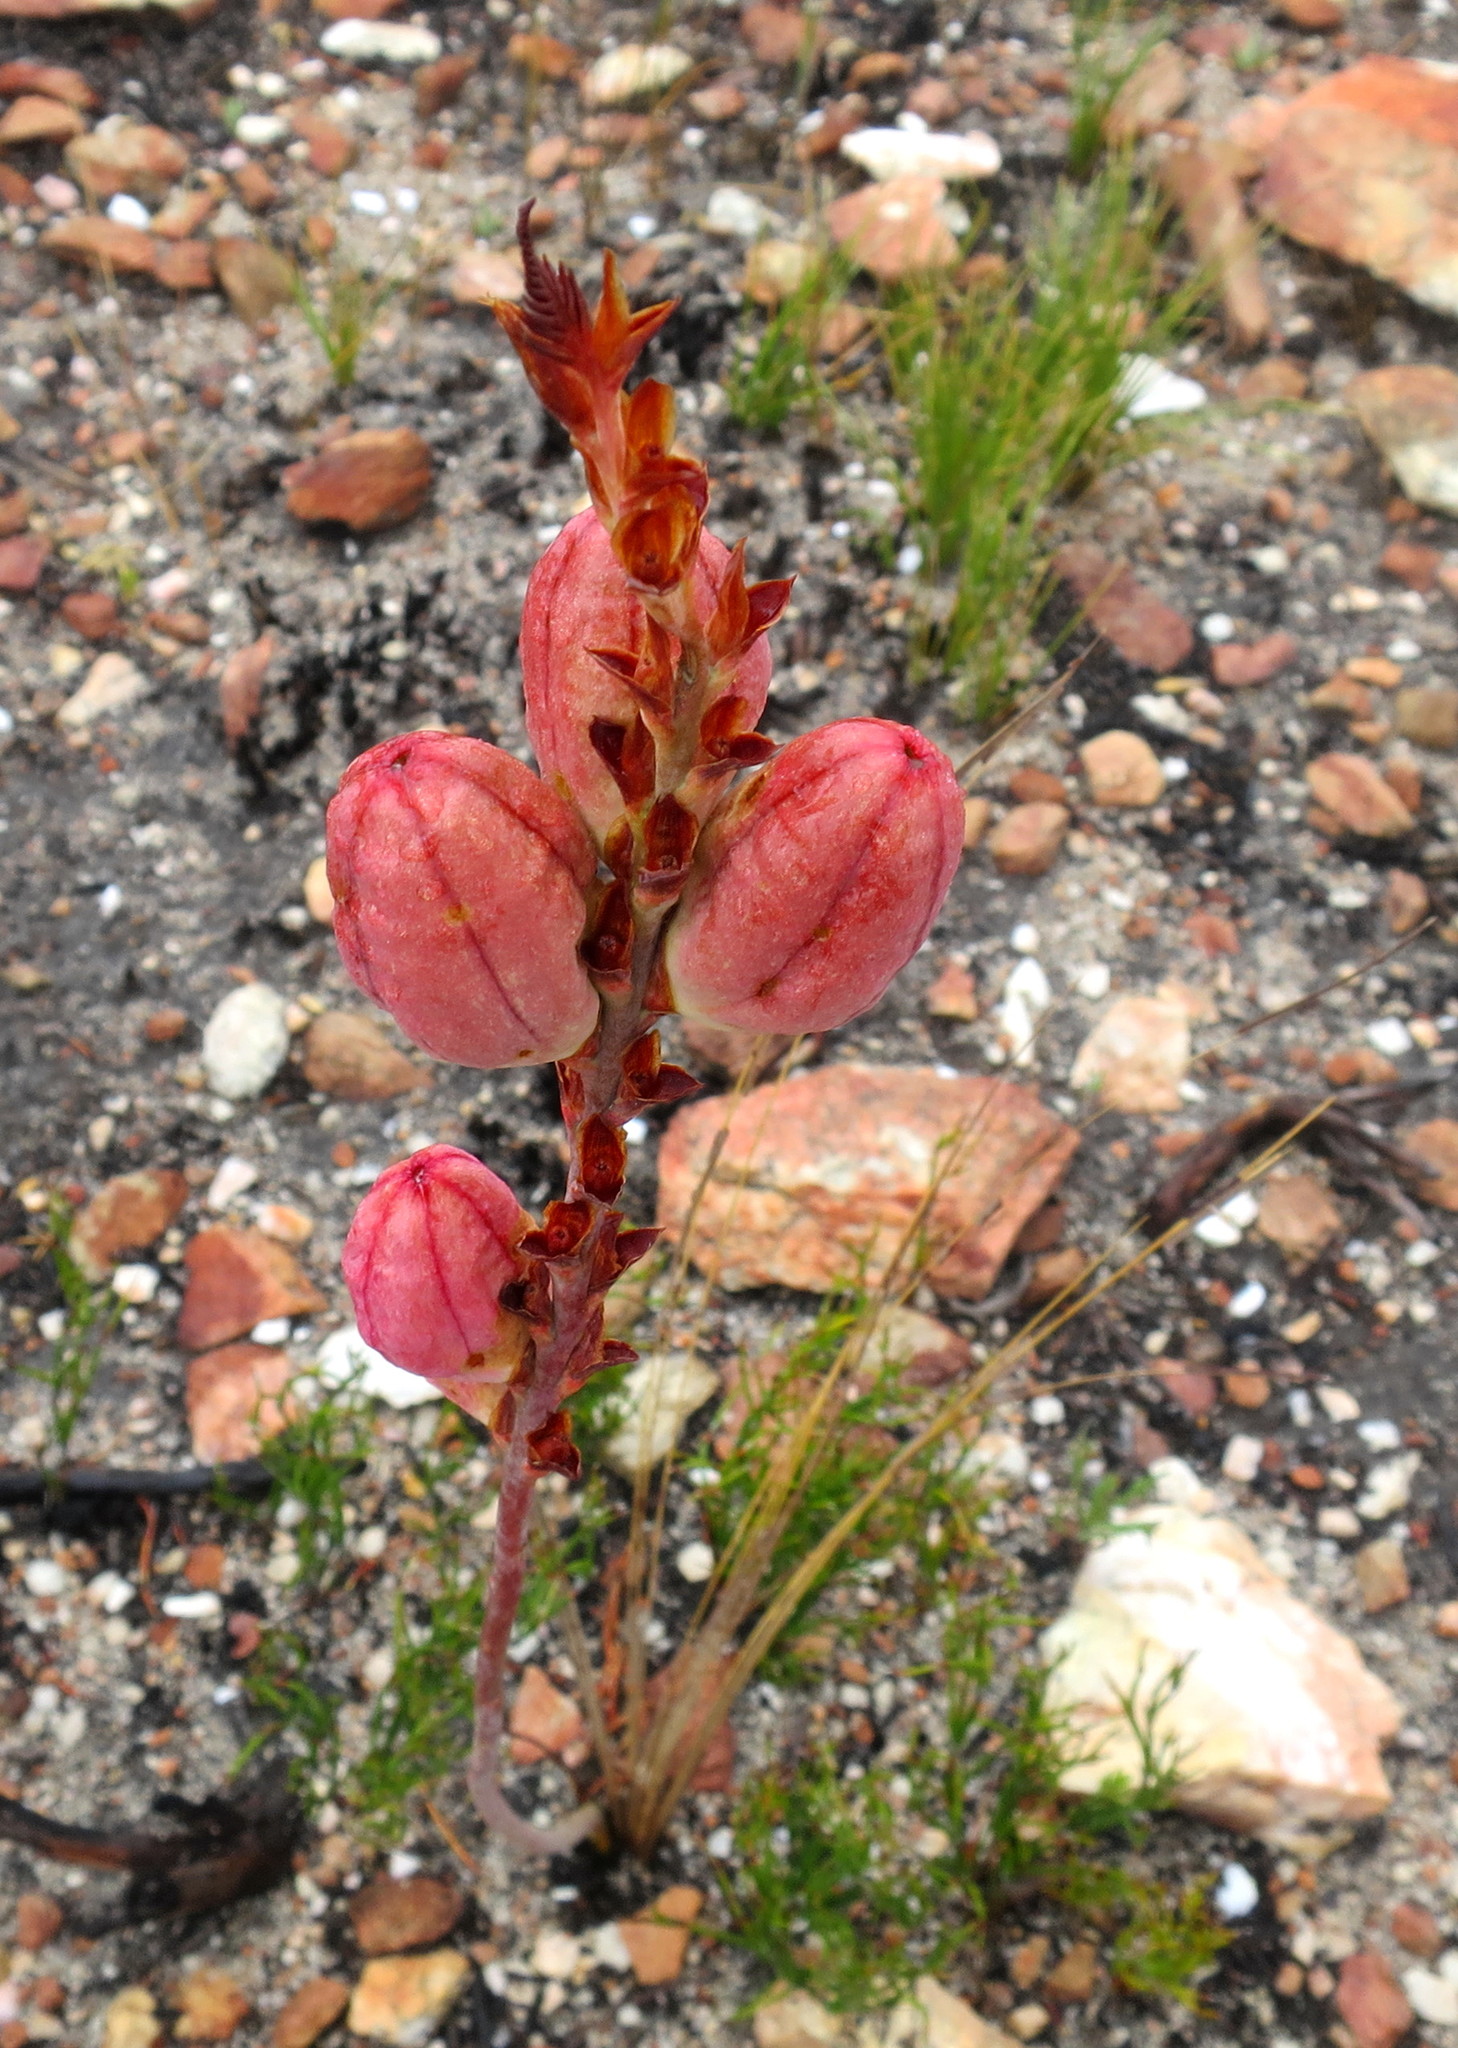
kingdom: Plantae
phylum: Tracheophyta
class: Liliopsida
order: Asparagales
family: Iridaceae
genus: Tritoniopsis
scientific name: Tritoniopsis antholyza
